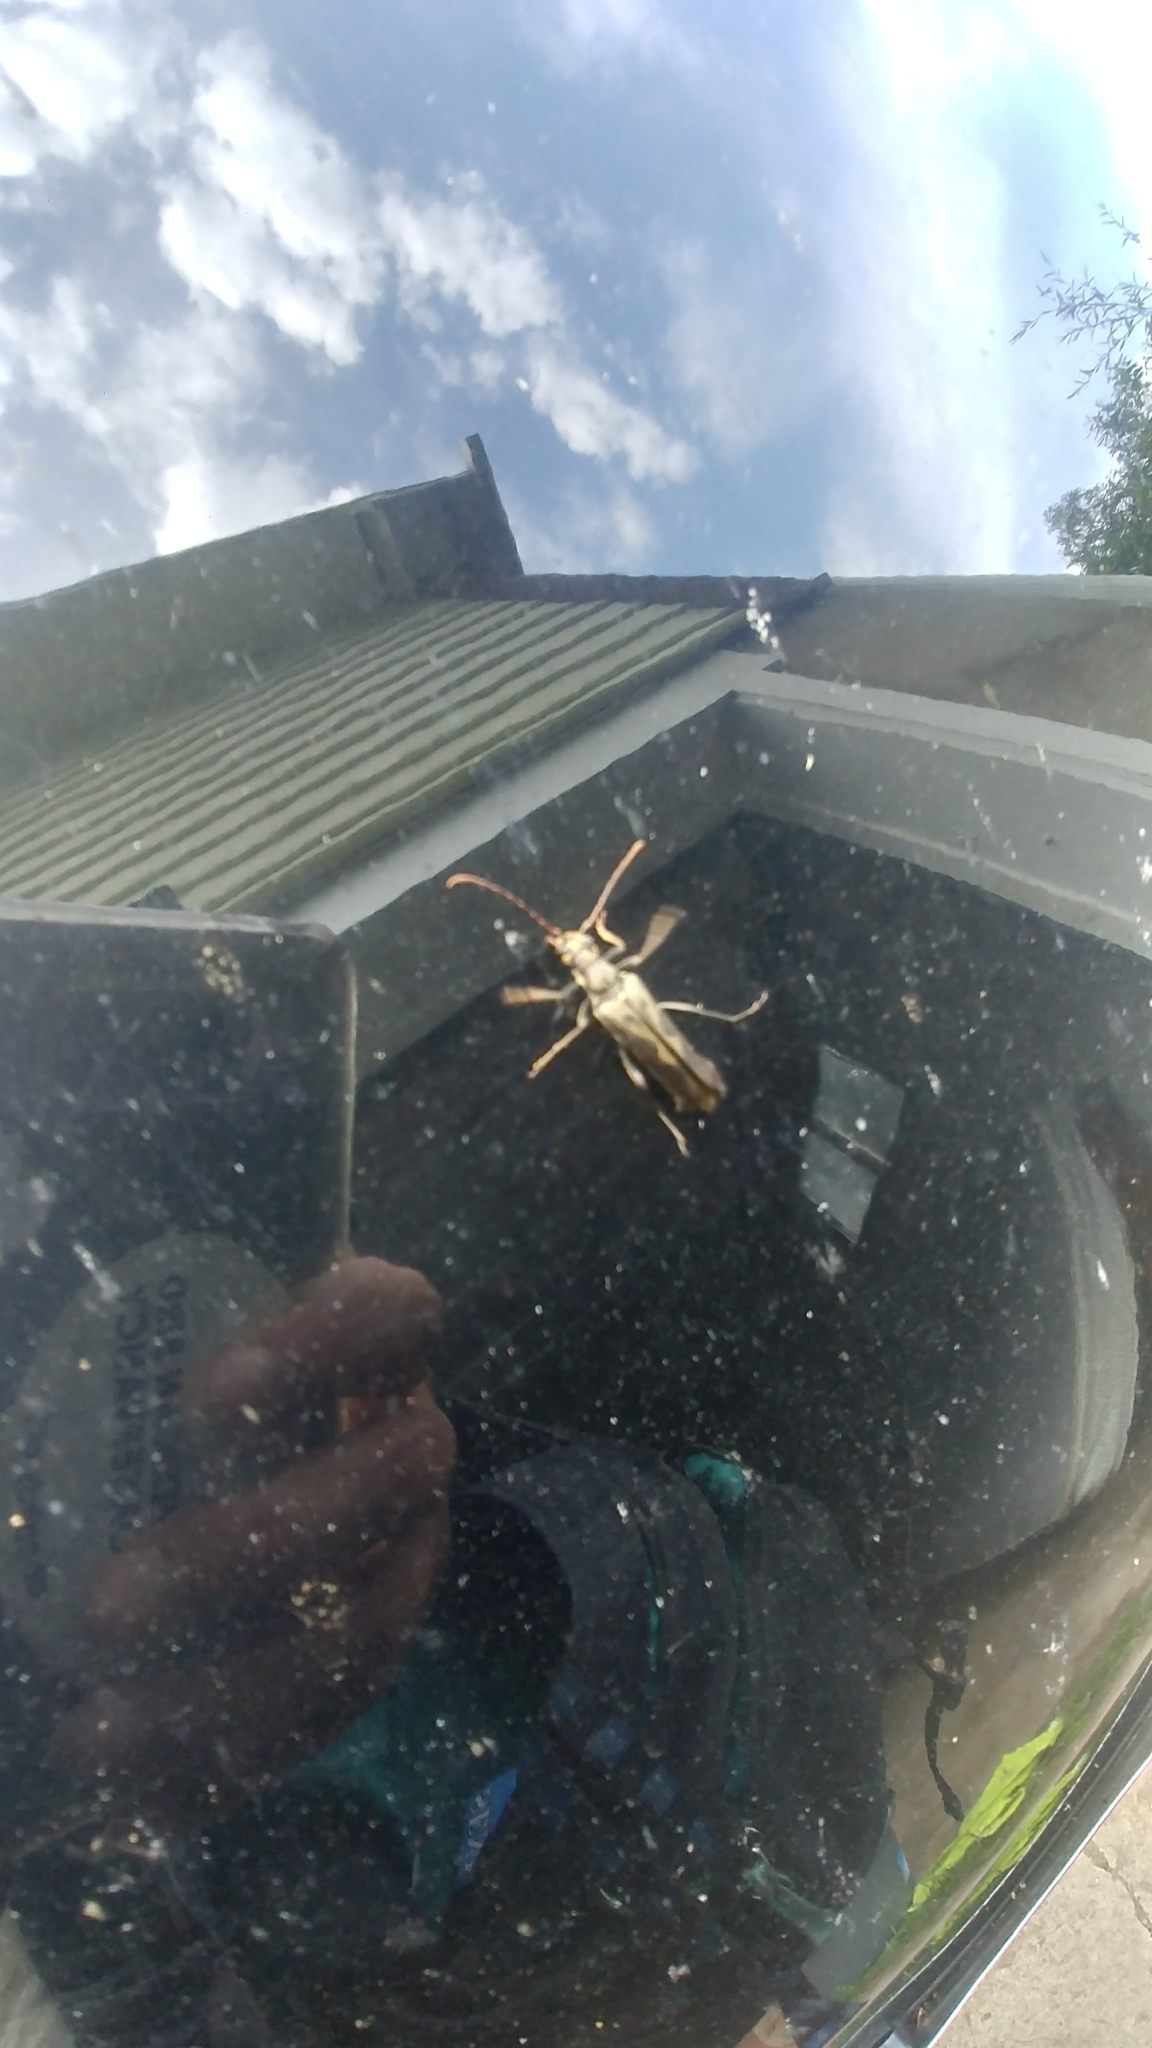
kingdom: Animalia
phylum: Arthropoda
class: Insecta
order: Coleoptera
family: Cerambycidae
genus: Bellamira
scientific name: Bellamira scalaris
